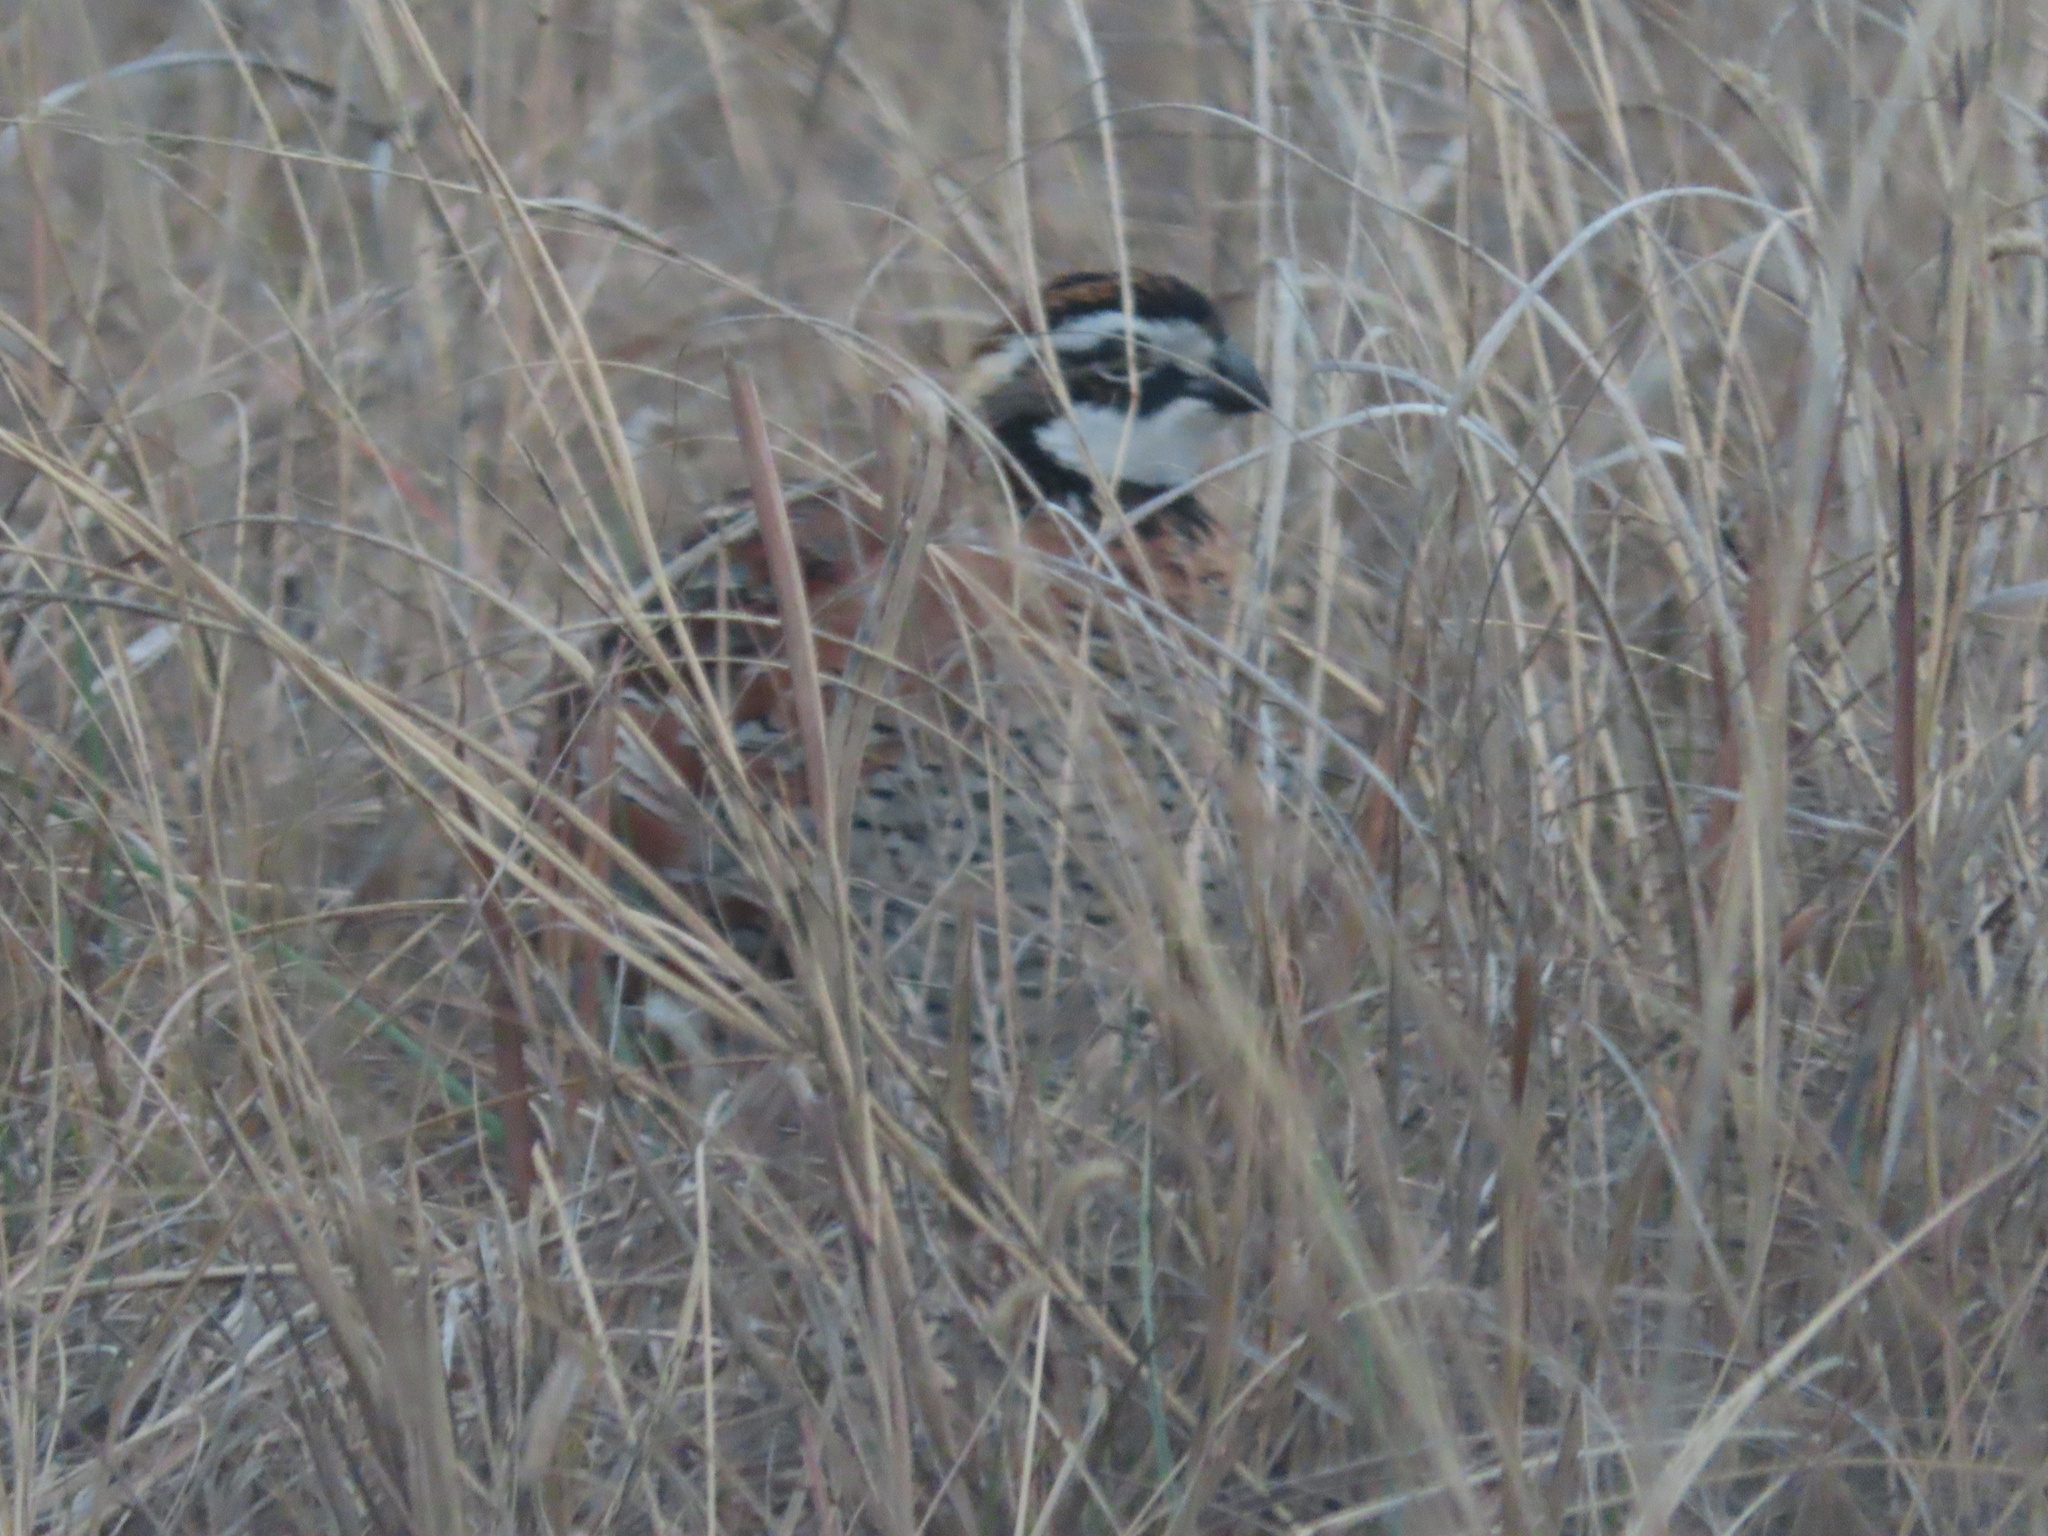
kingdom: Animalia
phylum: Chordata
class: Aves
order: Galliformes
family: Odontophoridae
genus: Colinus
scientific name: Colinus virginianus
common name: Northern bobwhite
